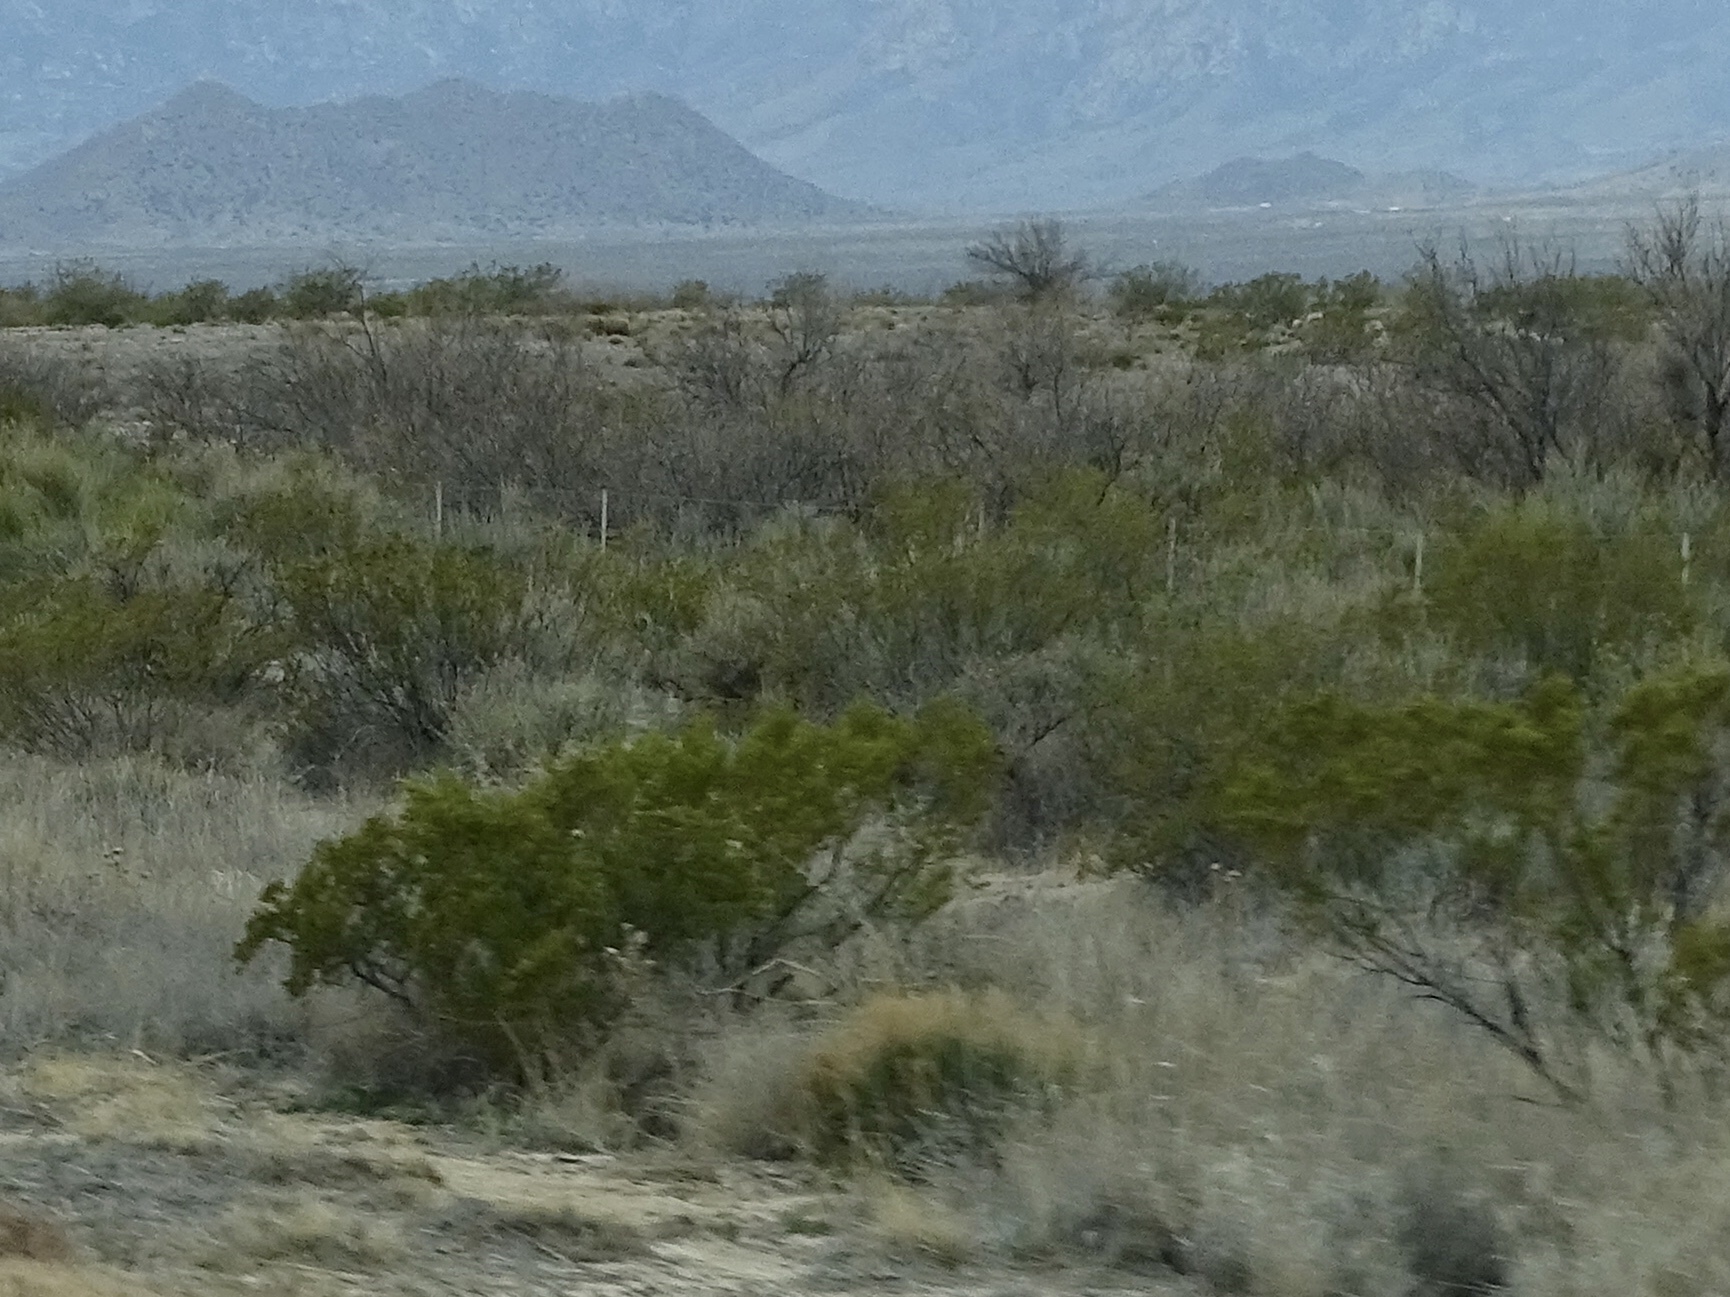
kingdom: Plantae
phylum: Tracheophyta
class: Magnoliopsida
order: Zygophyllales
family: Zygophyllaceae
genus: Larrea
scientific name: Larrea tridentata
